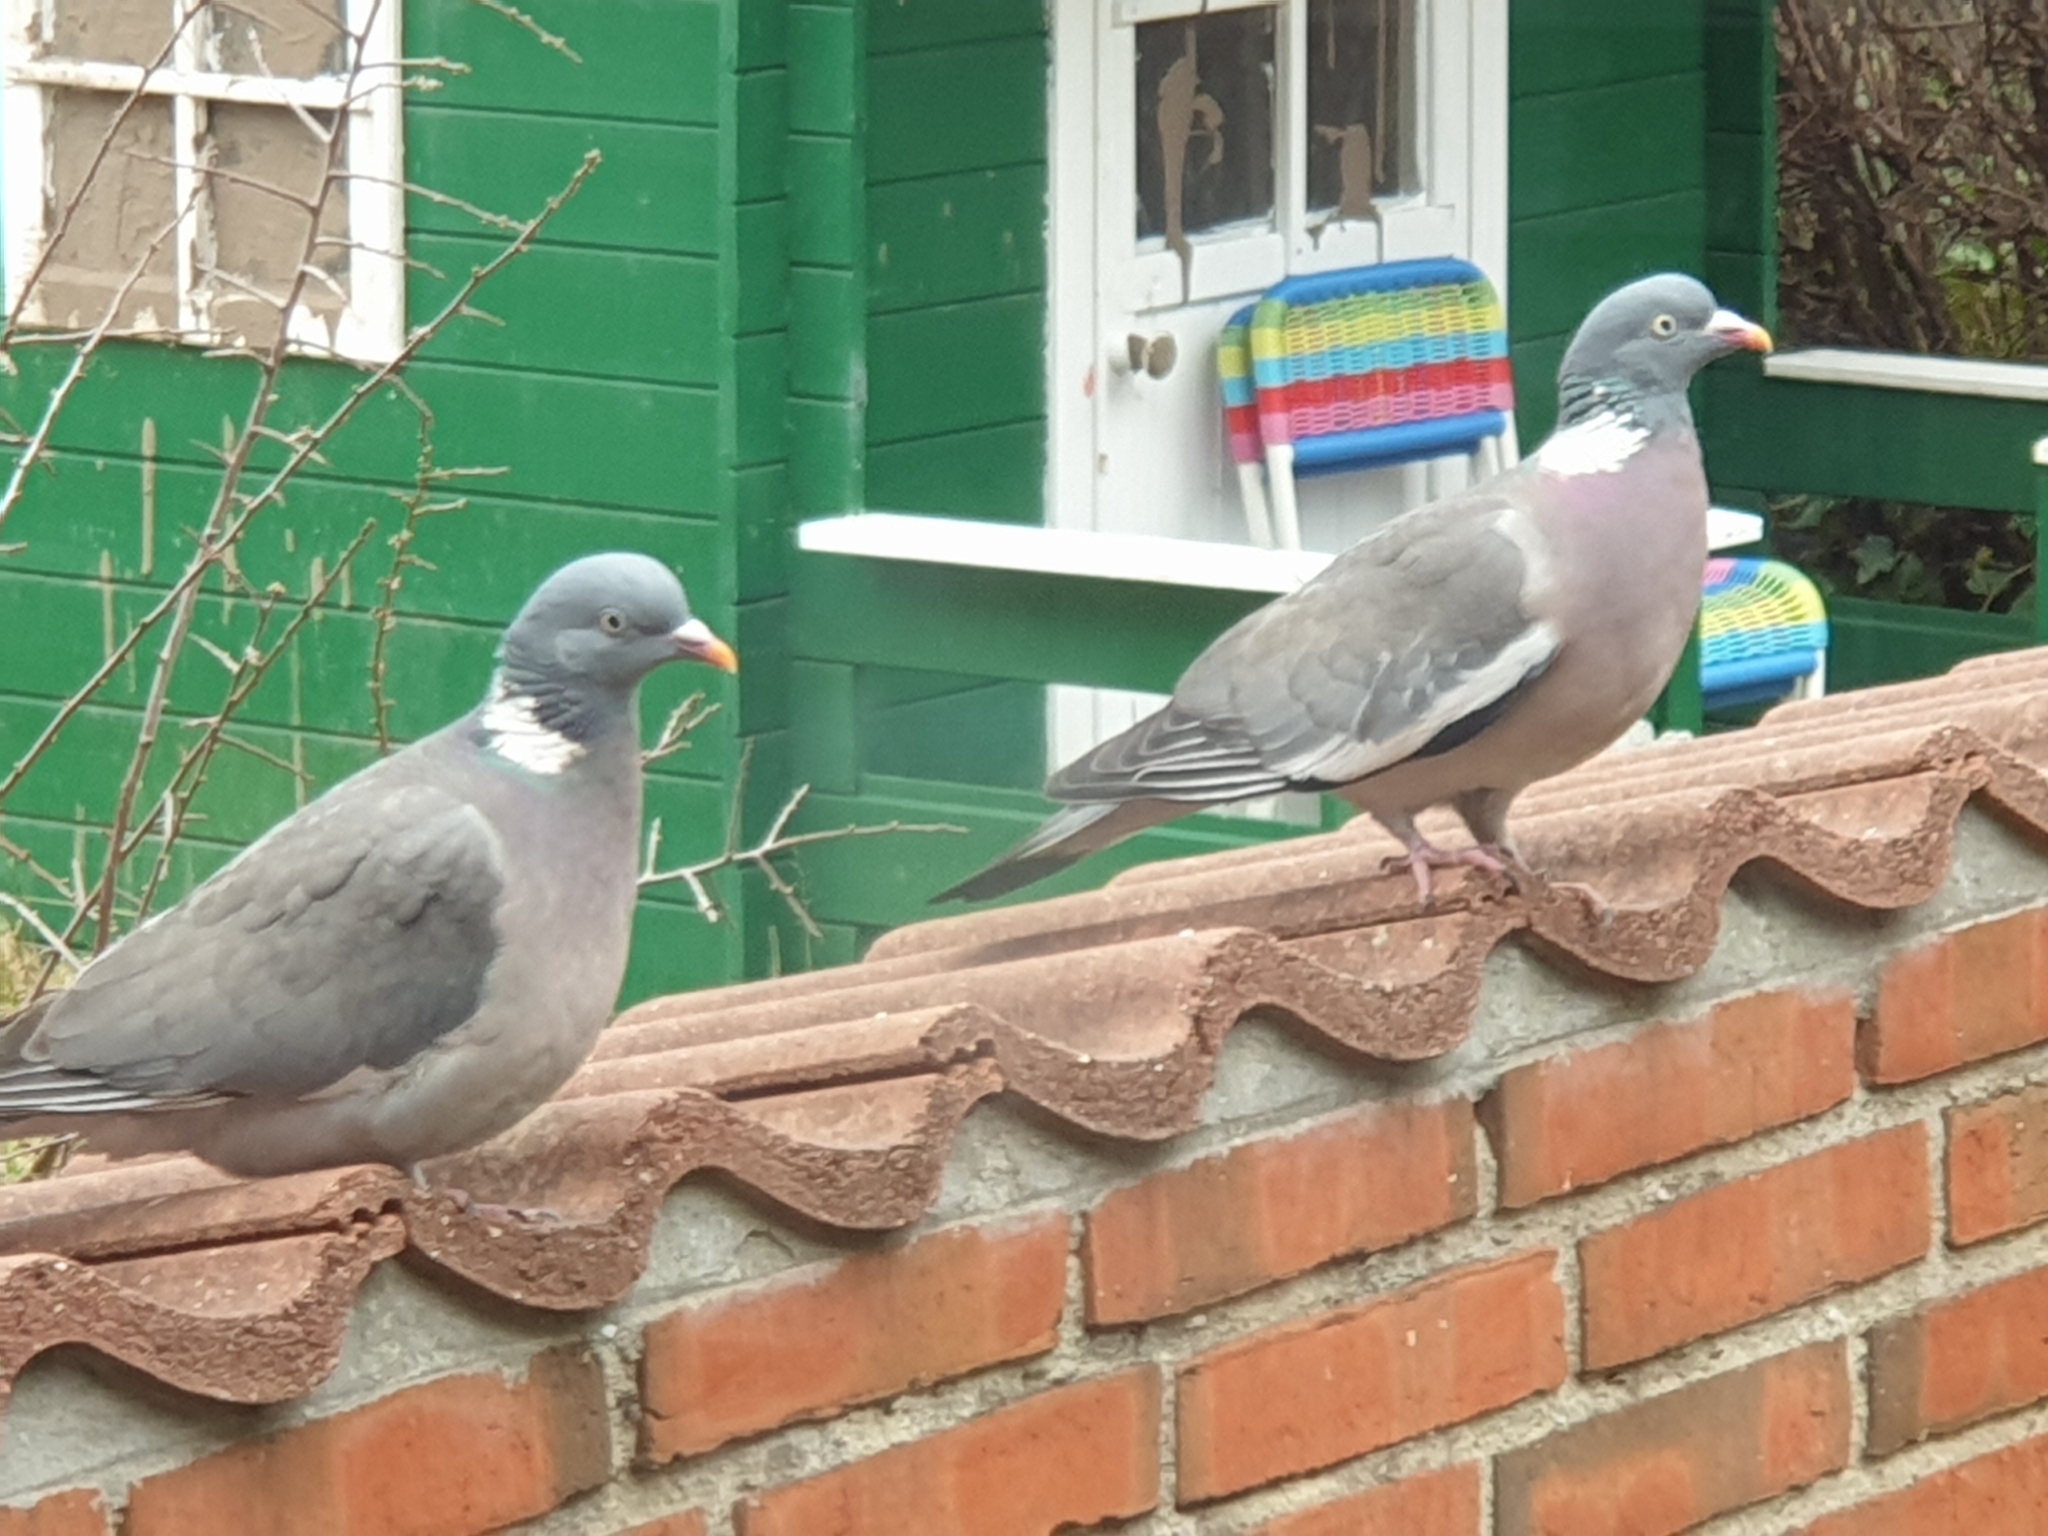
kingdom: Animalia
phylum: Chordata
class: Aves
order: Columbiformes
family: Columbidae
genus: Columba
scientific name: Columba palumbus
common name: Common wood pigeon
